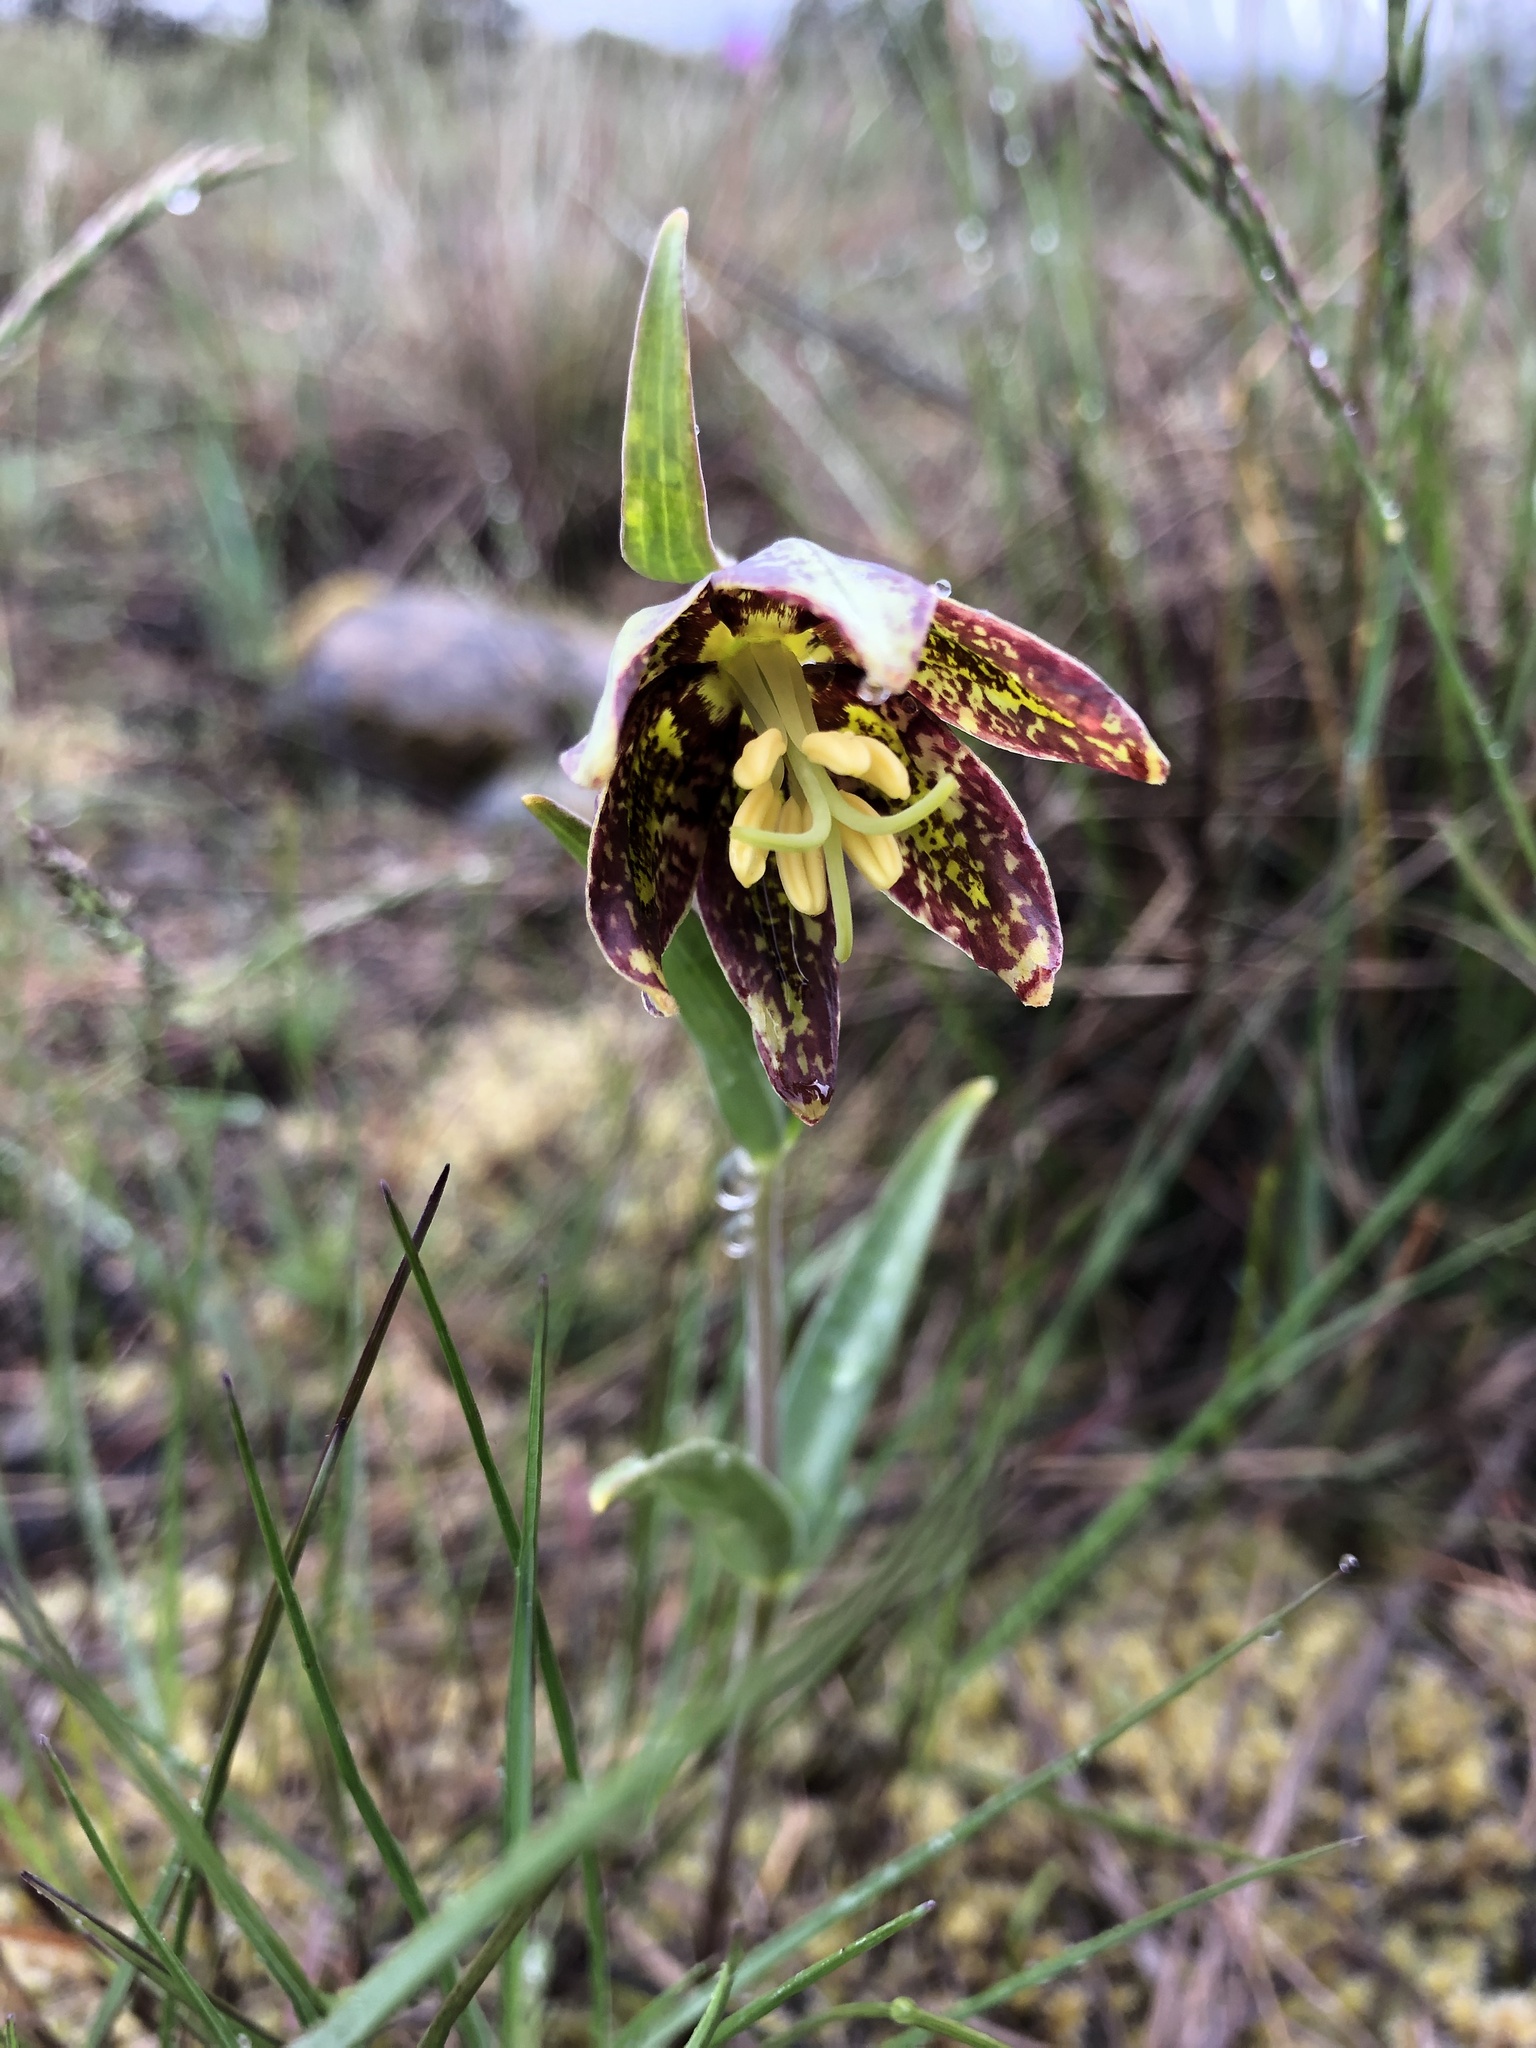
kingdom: Plantae
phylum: Tracheophyta
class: Liliopsida
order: Liliales
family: Liliaceae
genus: Fritillaria
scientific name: Fritillaria affinis
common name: Ojai fritillary
